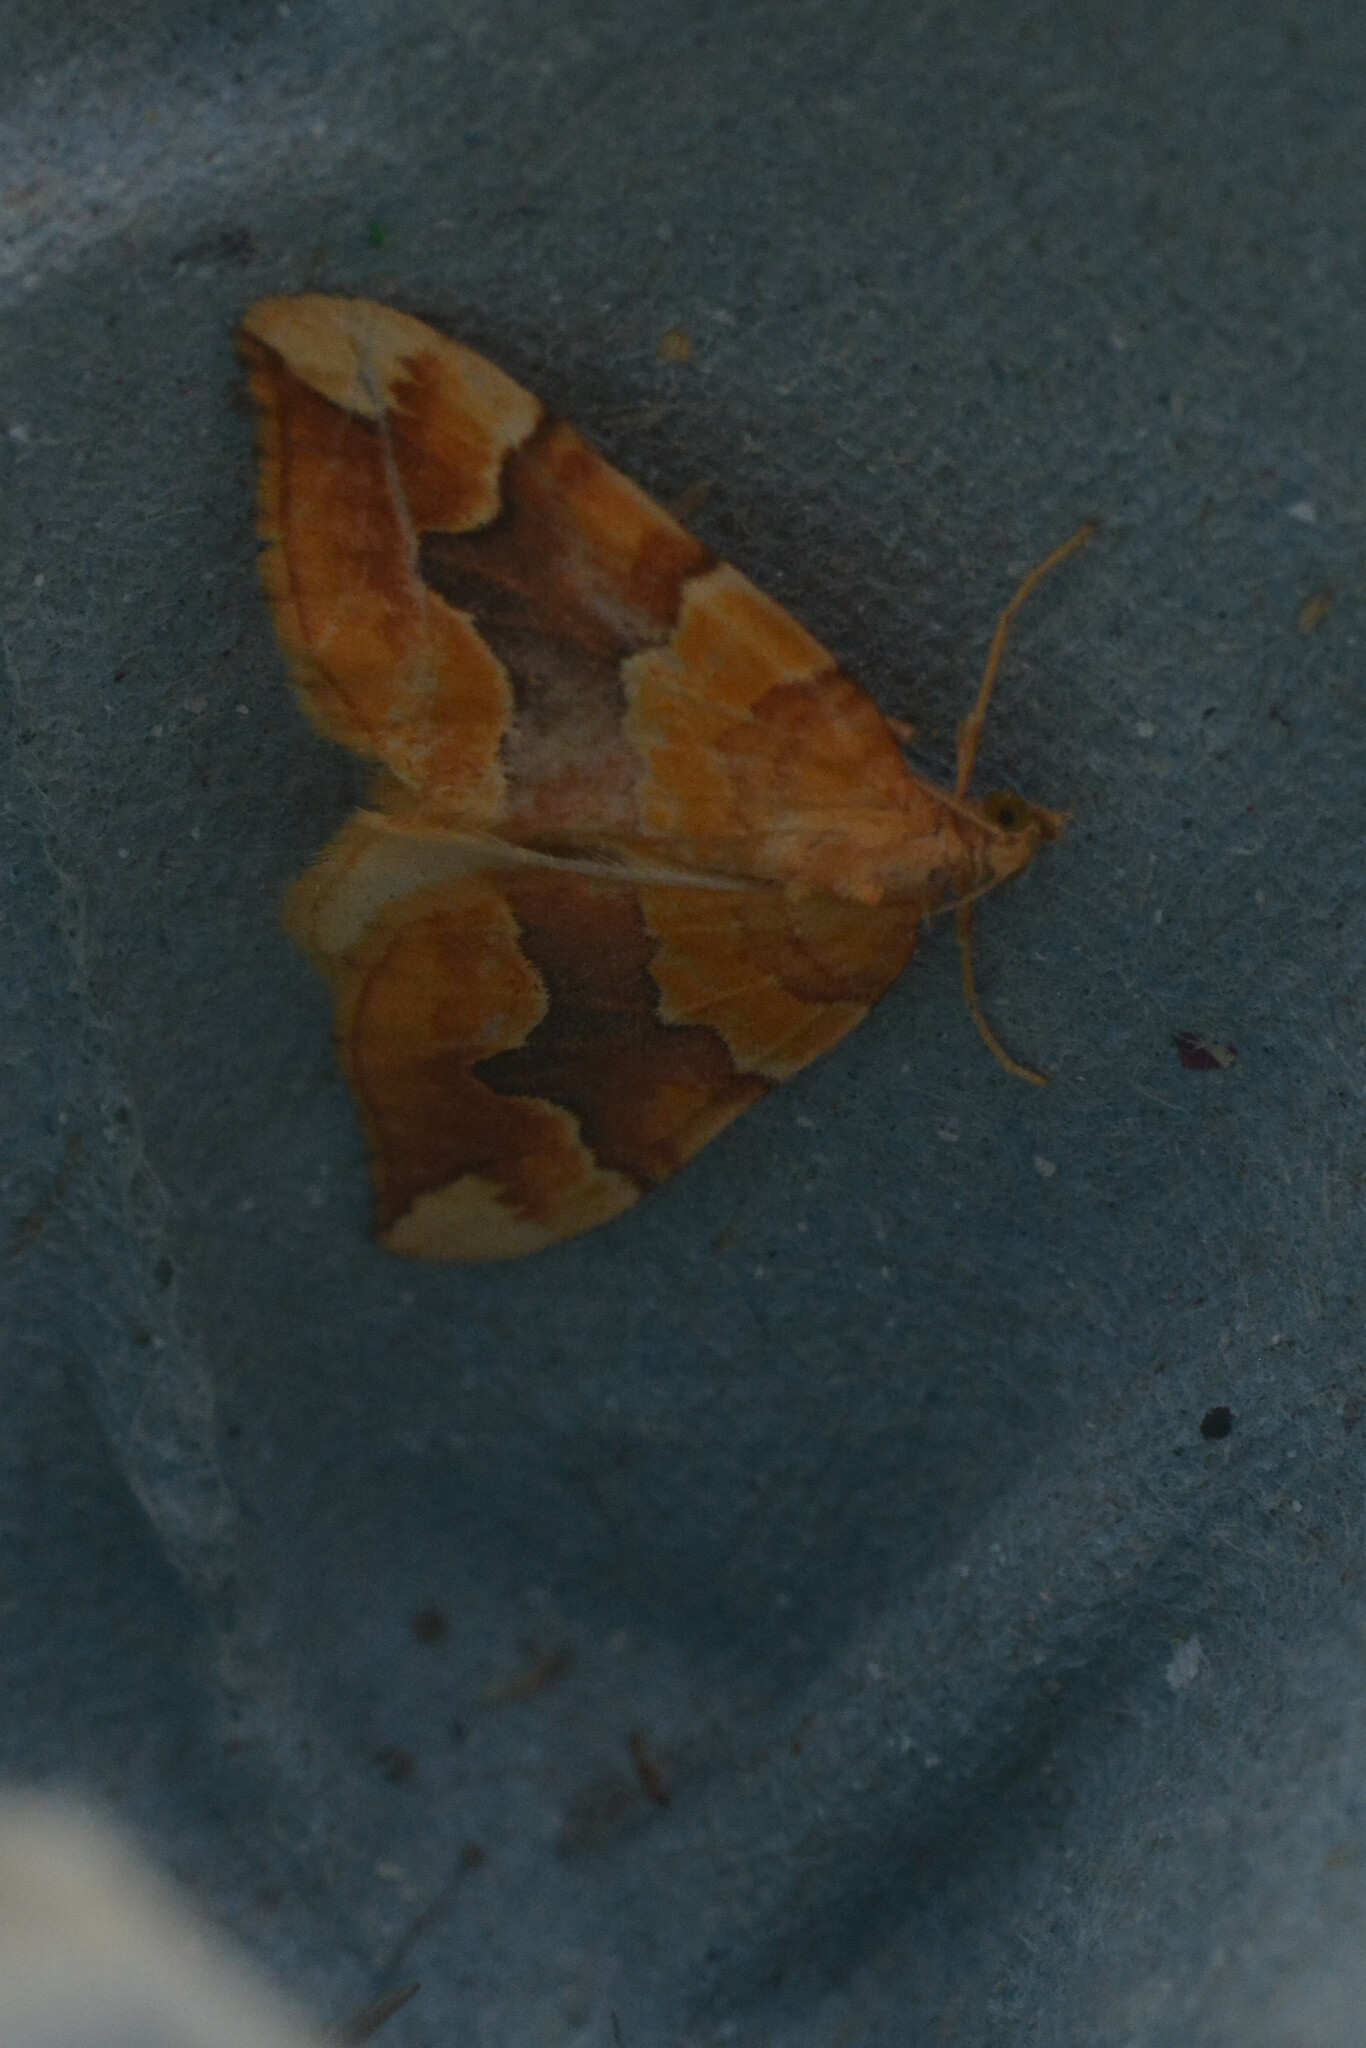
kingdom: Animalia
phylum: Arthropoda
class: Insecta
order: Lepidoptera
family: Geometridae
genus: Cidaria
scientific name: Cidaria fulvata
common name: Barred yellow
